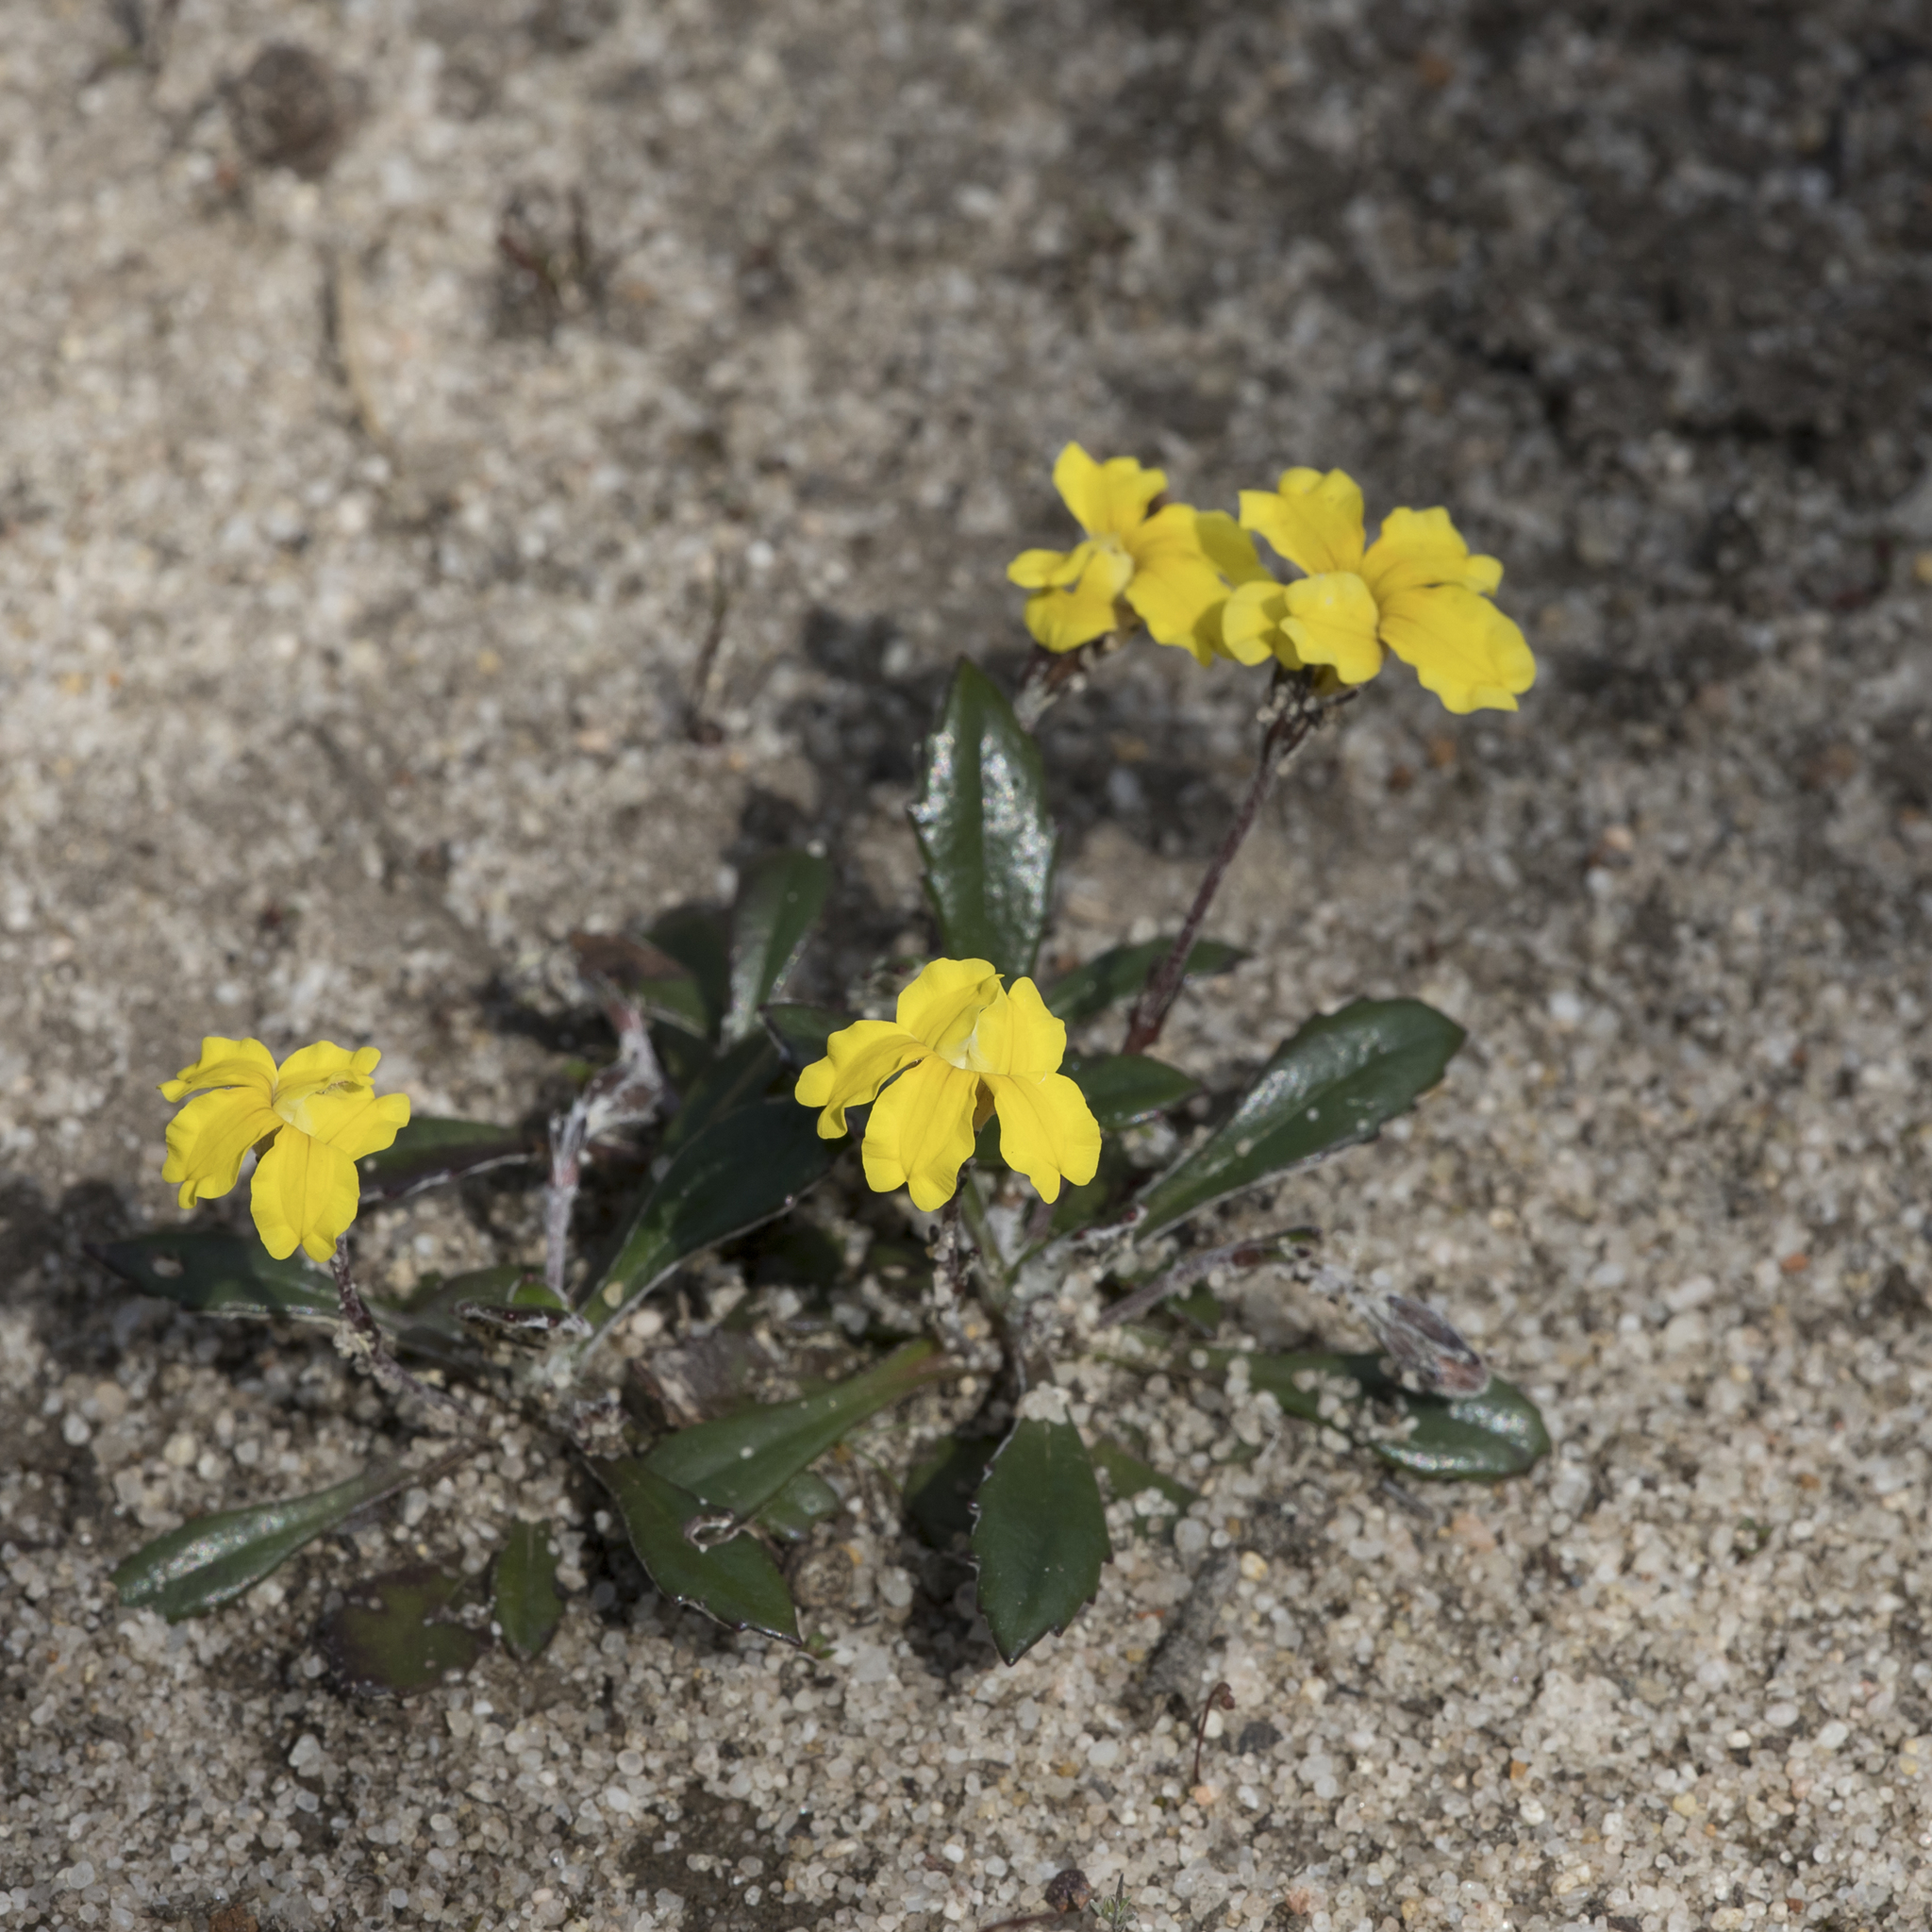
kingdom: Plantae
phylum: Tracheophyta
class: Magnoliopsida
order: Asterales
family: Goodeniaceae
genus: Goodenia
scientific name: Goodenia blackiana
